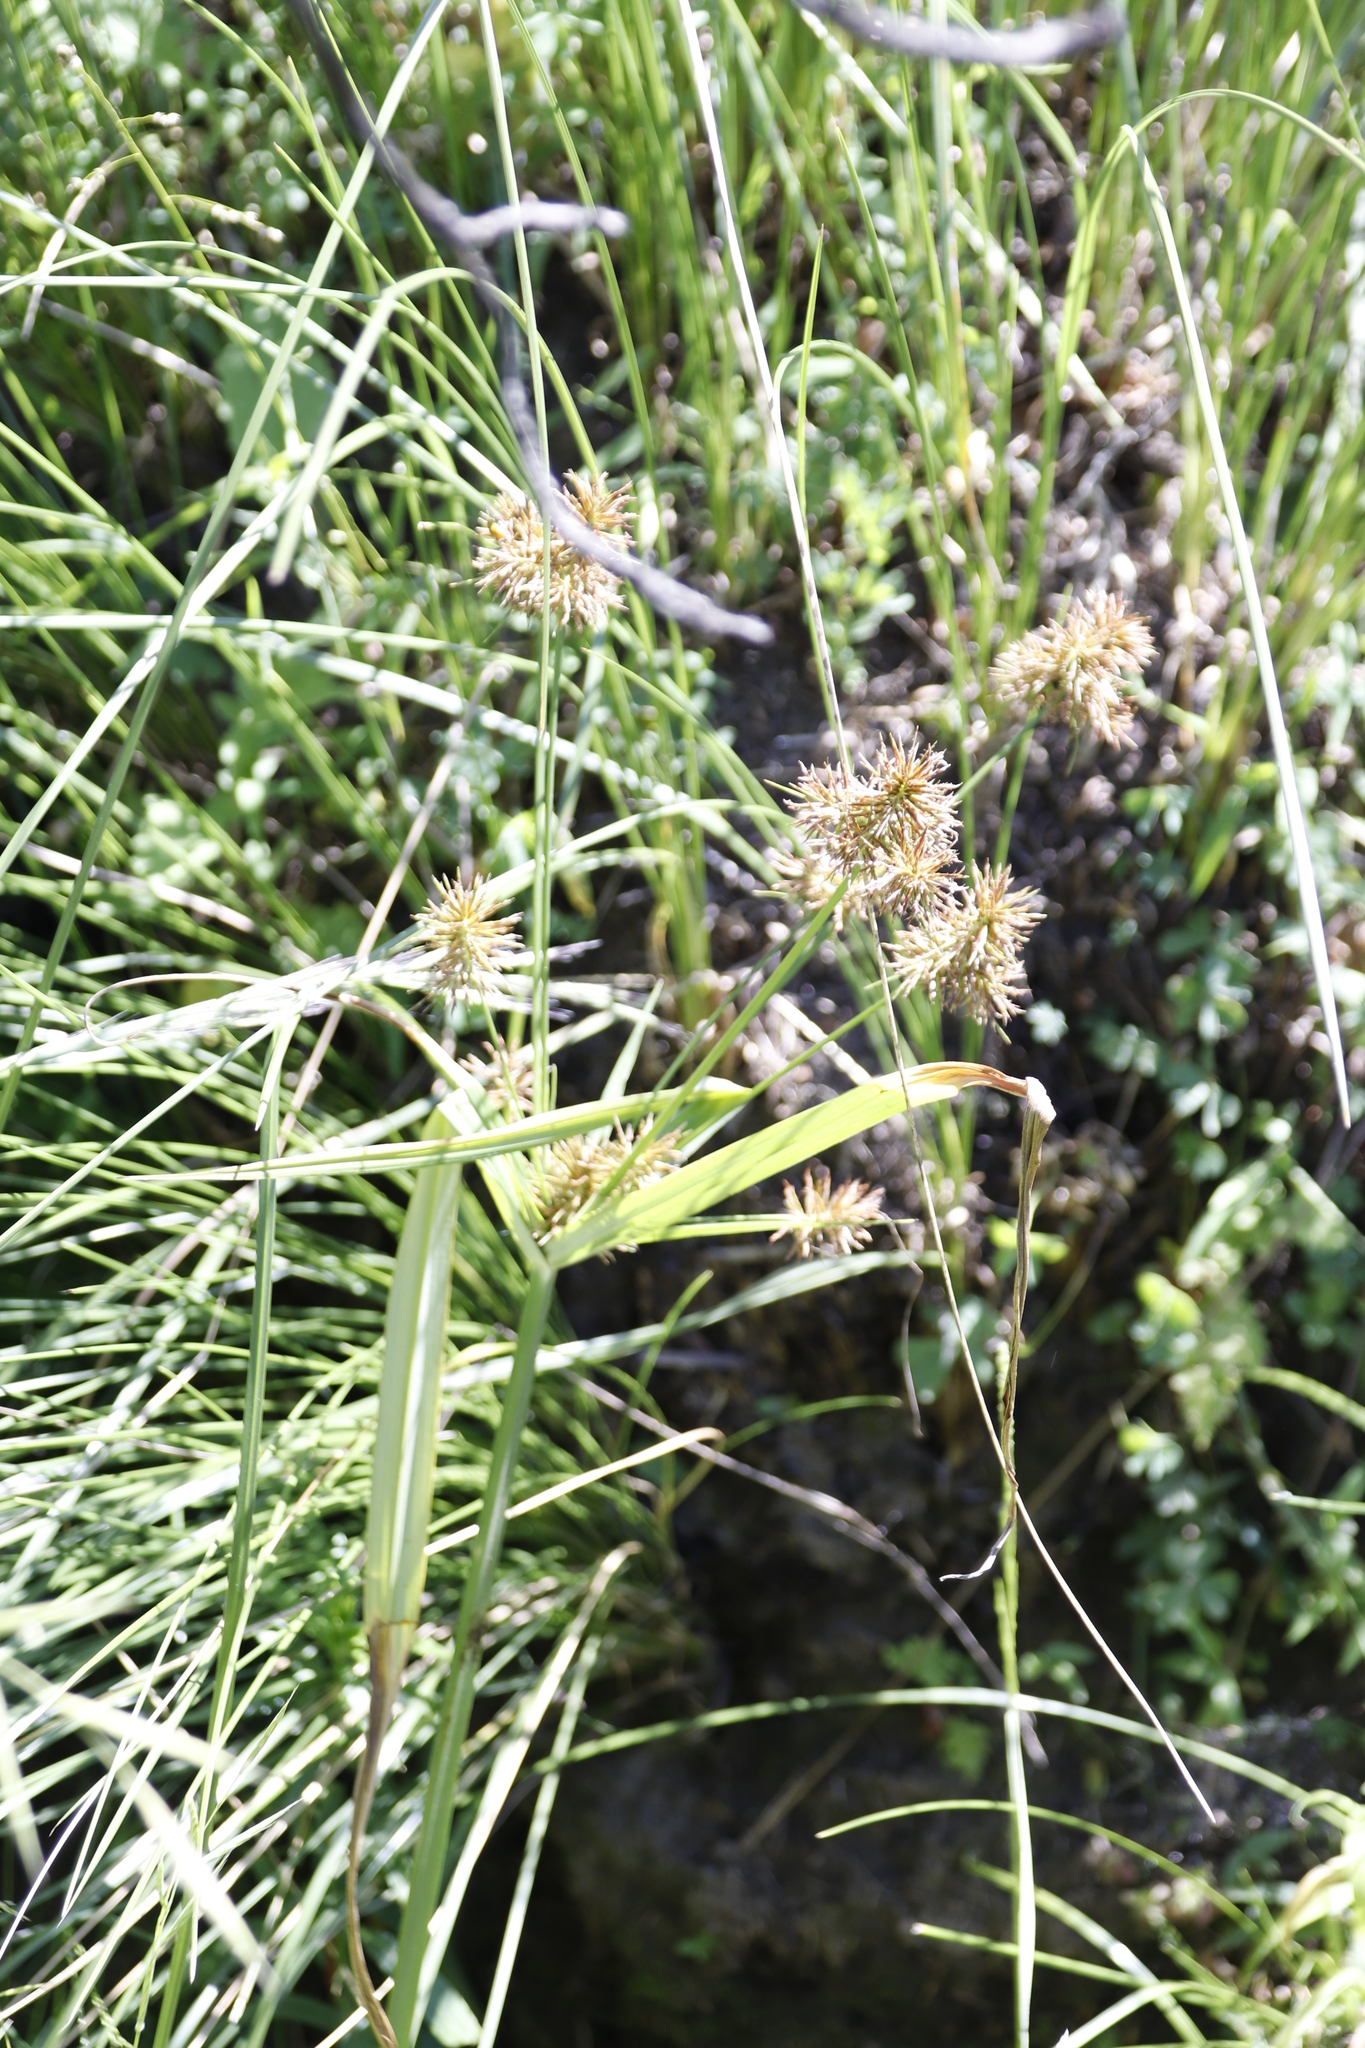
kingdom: Plantae
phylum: Tracheophyta
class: Liliopsida
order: Poales
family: Cyperaceae
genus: Cyperus
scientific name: Cyperus congestus
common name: Dense flat sedge
